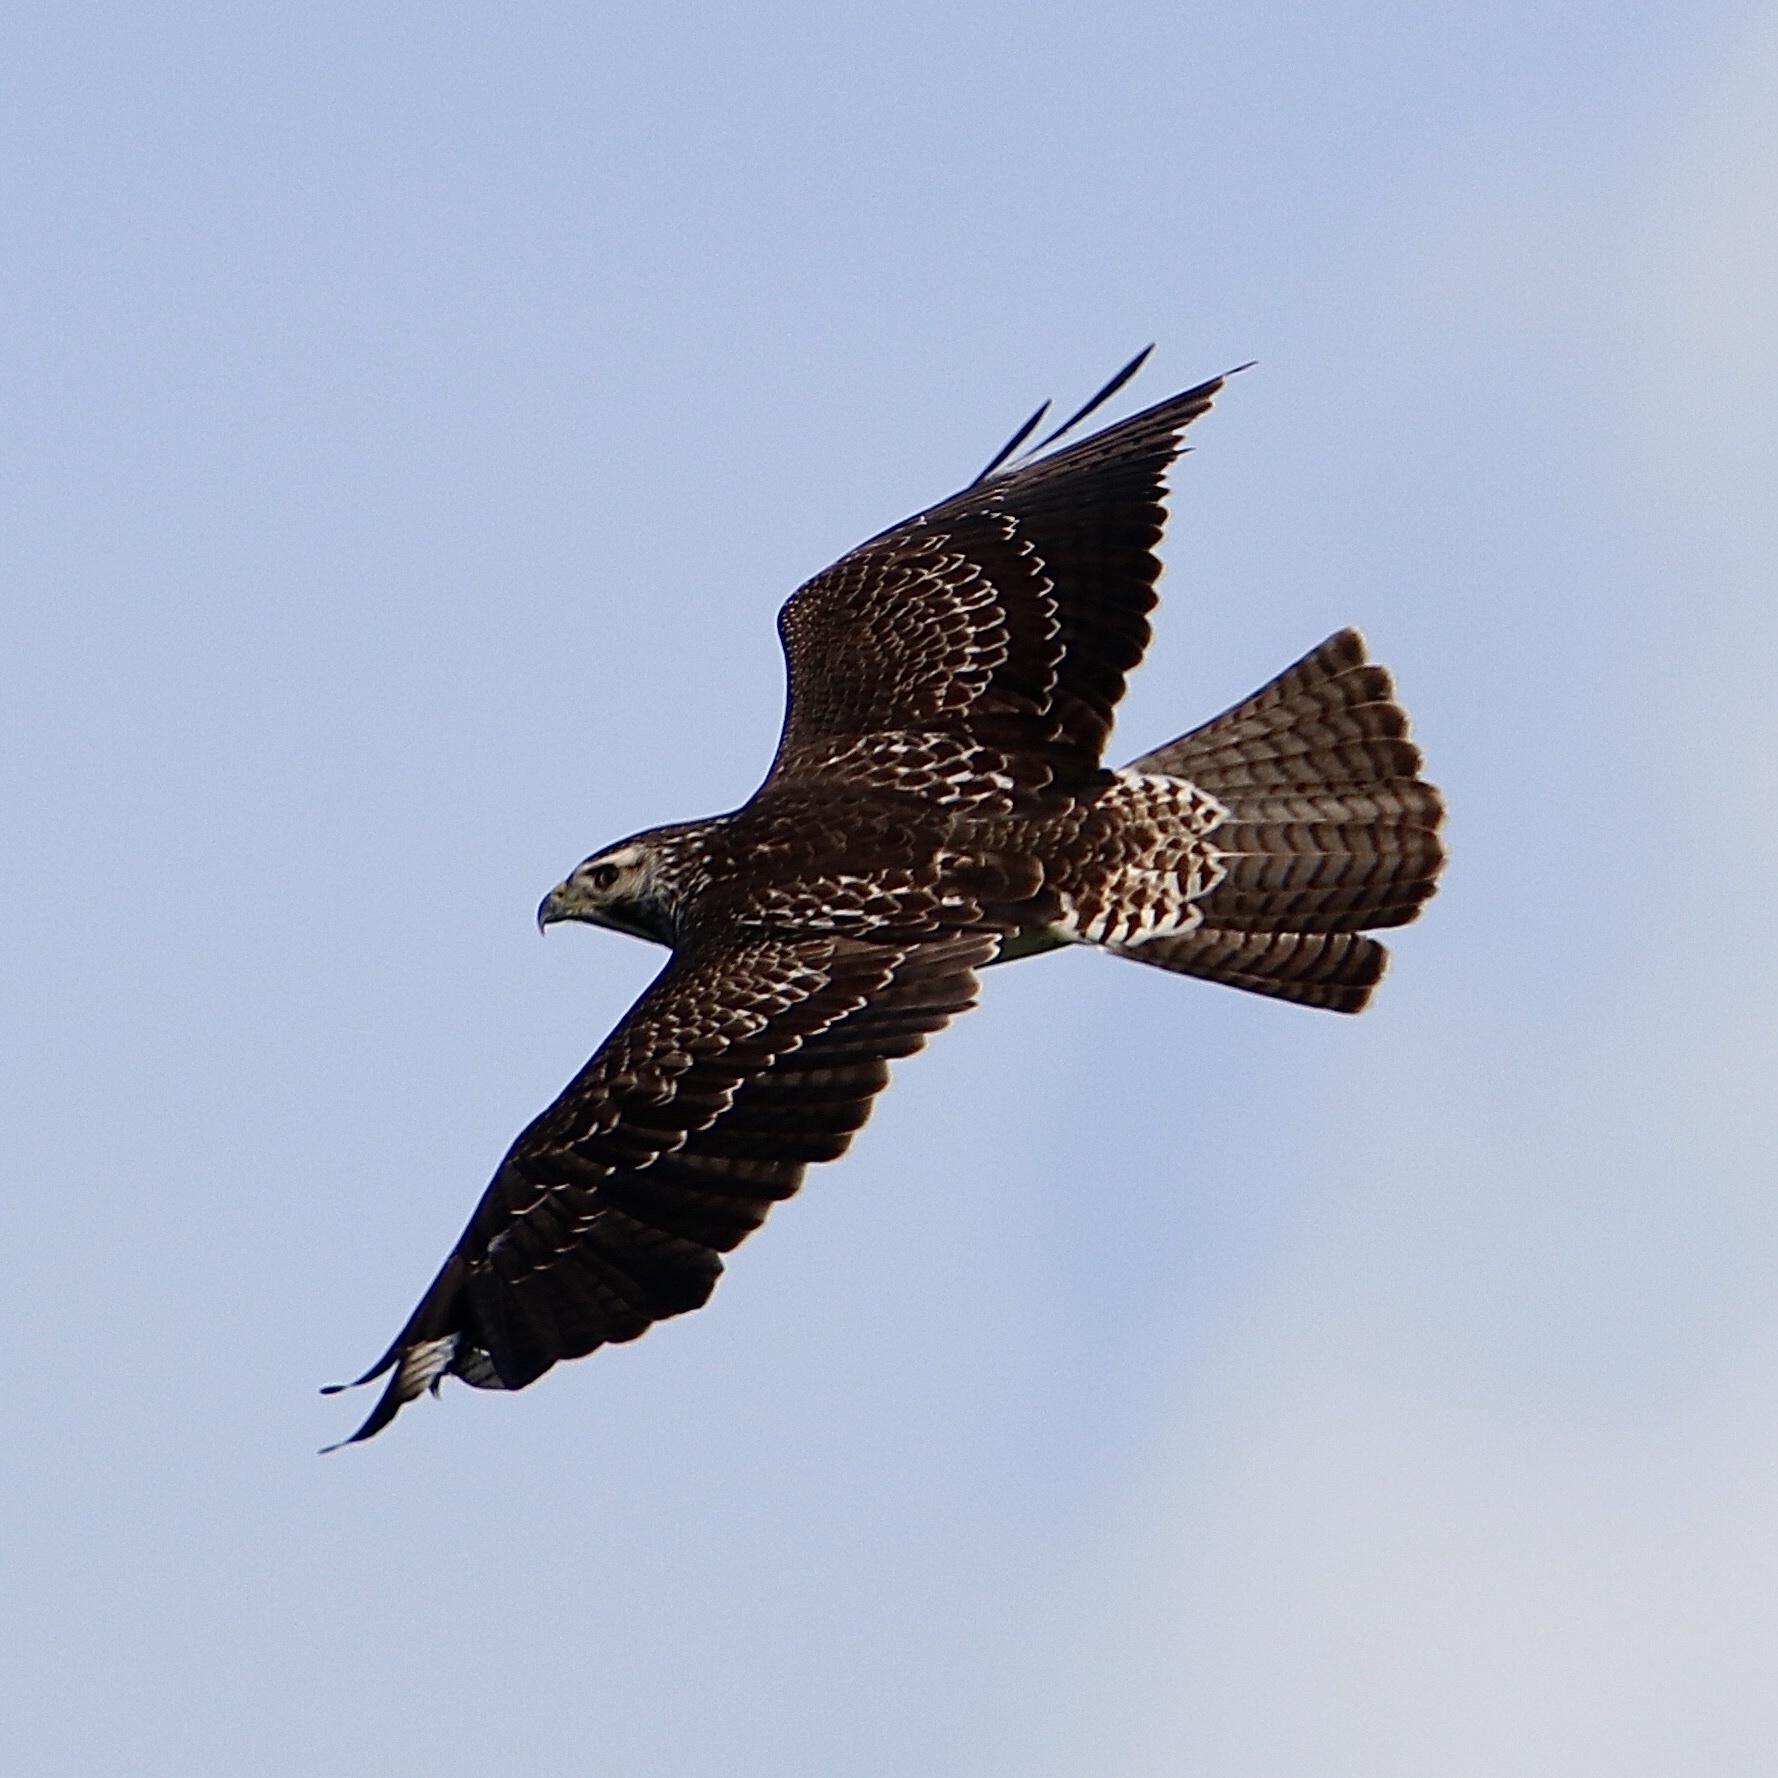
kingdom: Animalia
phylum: Chordata
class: Aves
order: Accipitriformes
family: Accipitridae
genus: Buteo
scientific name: Buteo swainsoni
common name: Swainson's hawk
